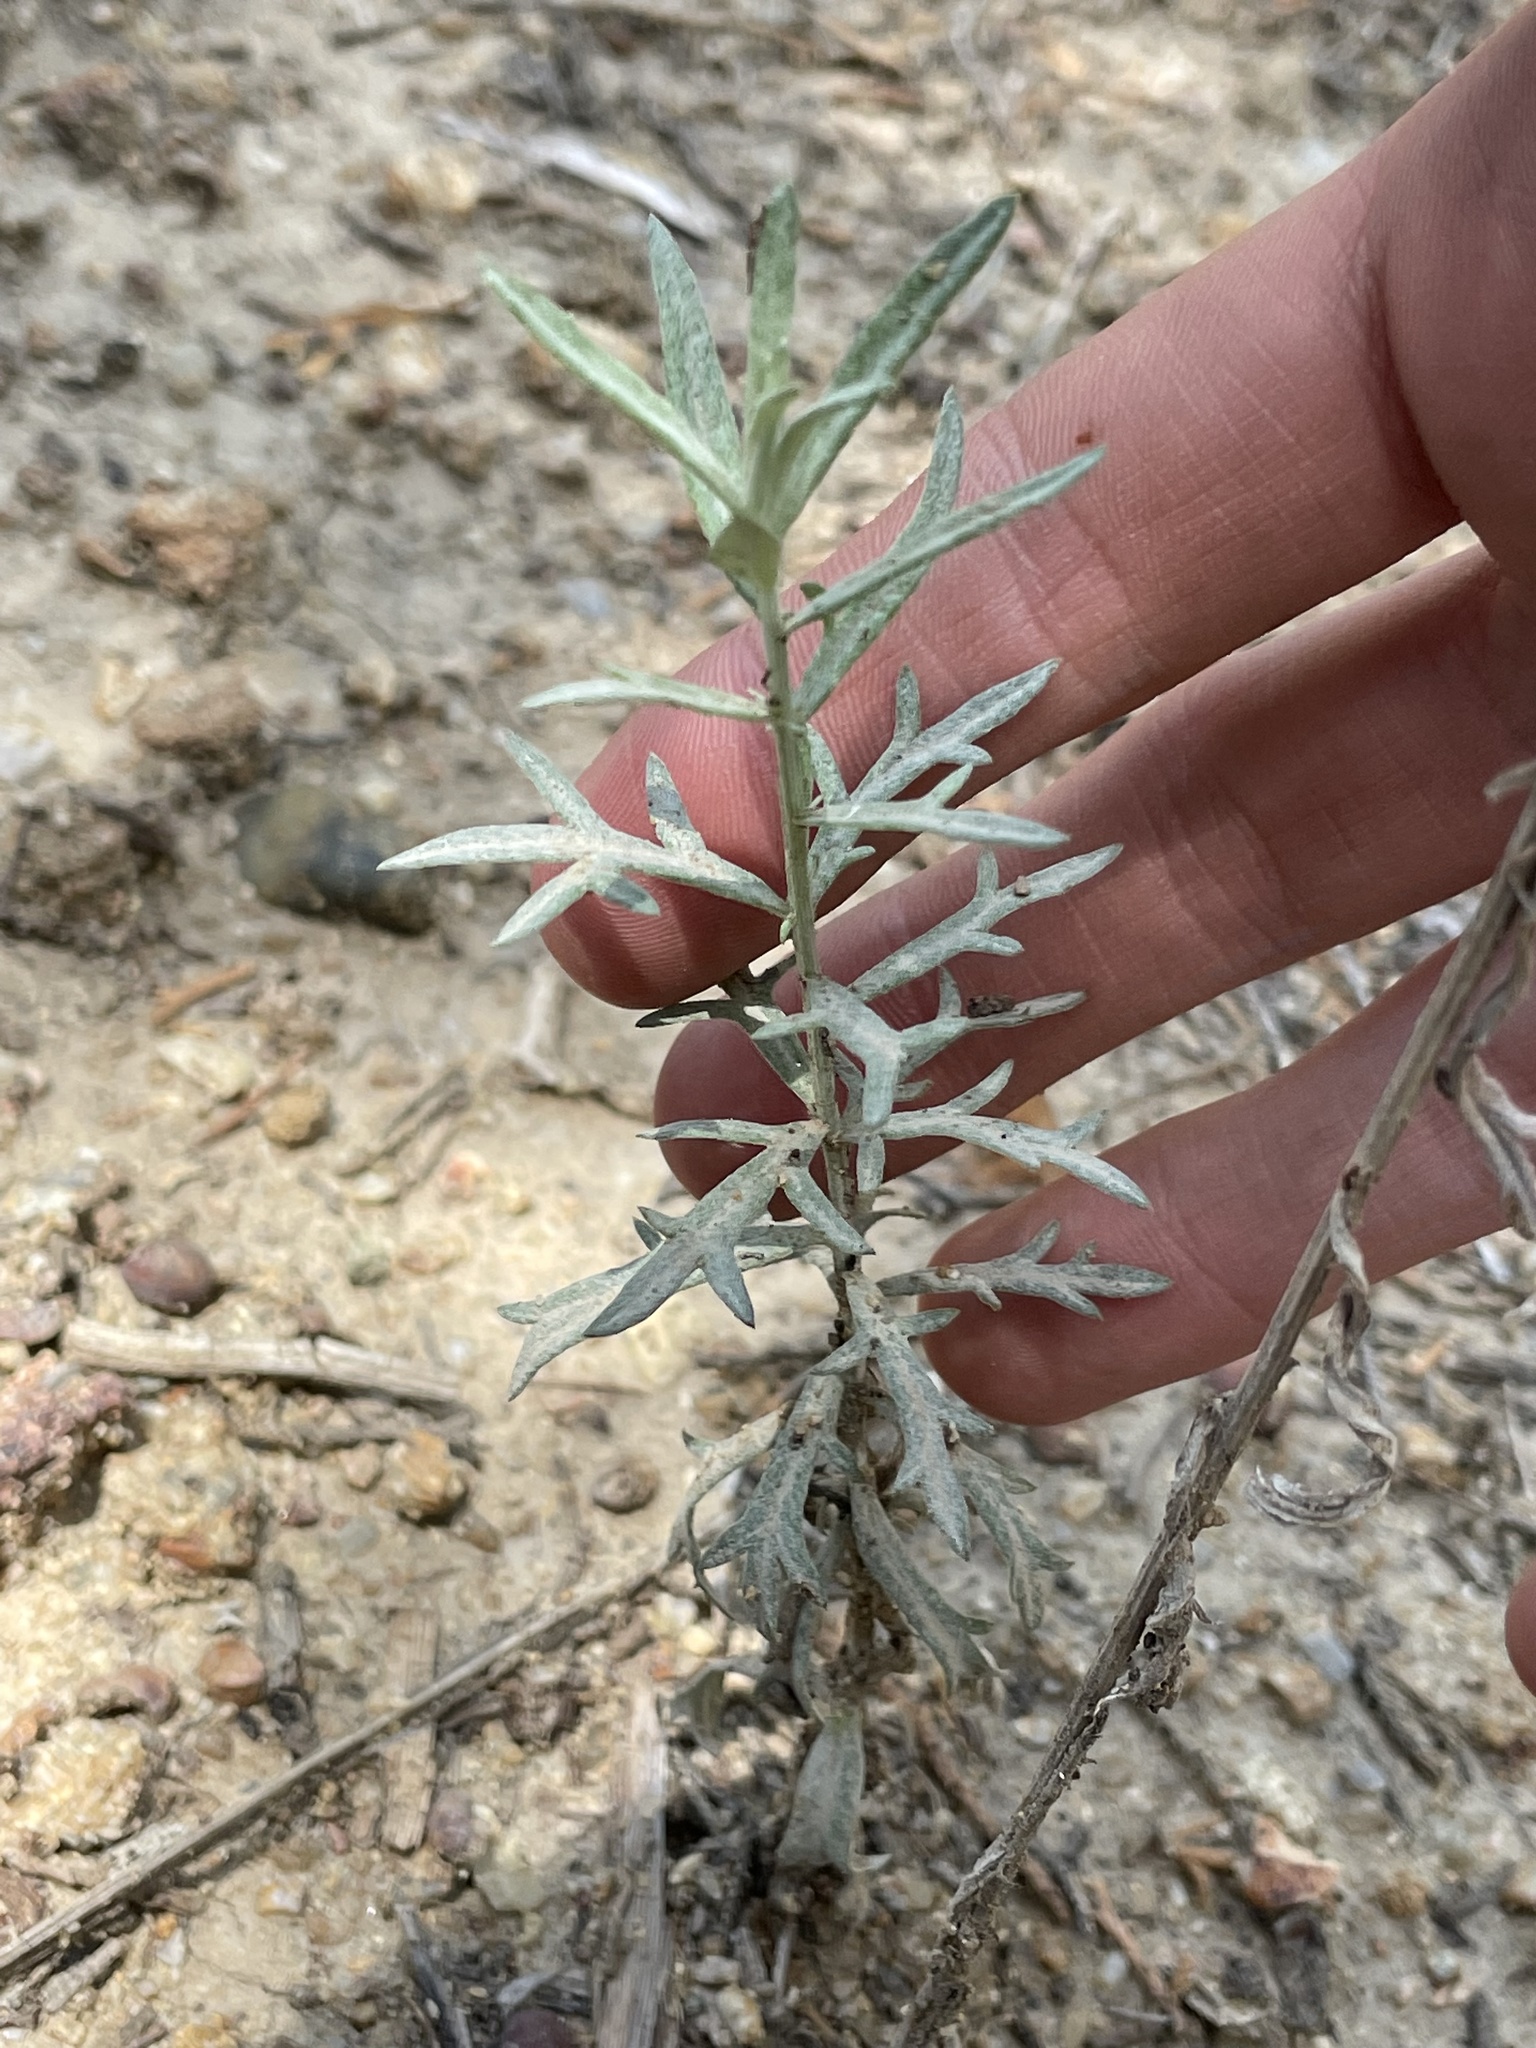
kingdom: Plantae
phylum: Tracheophyta
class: Magnoliopsida
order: Asterales
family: Asteraceae
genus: Artemisia
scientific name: Artemisia ludoviciana
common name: Western mugwort
